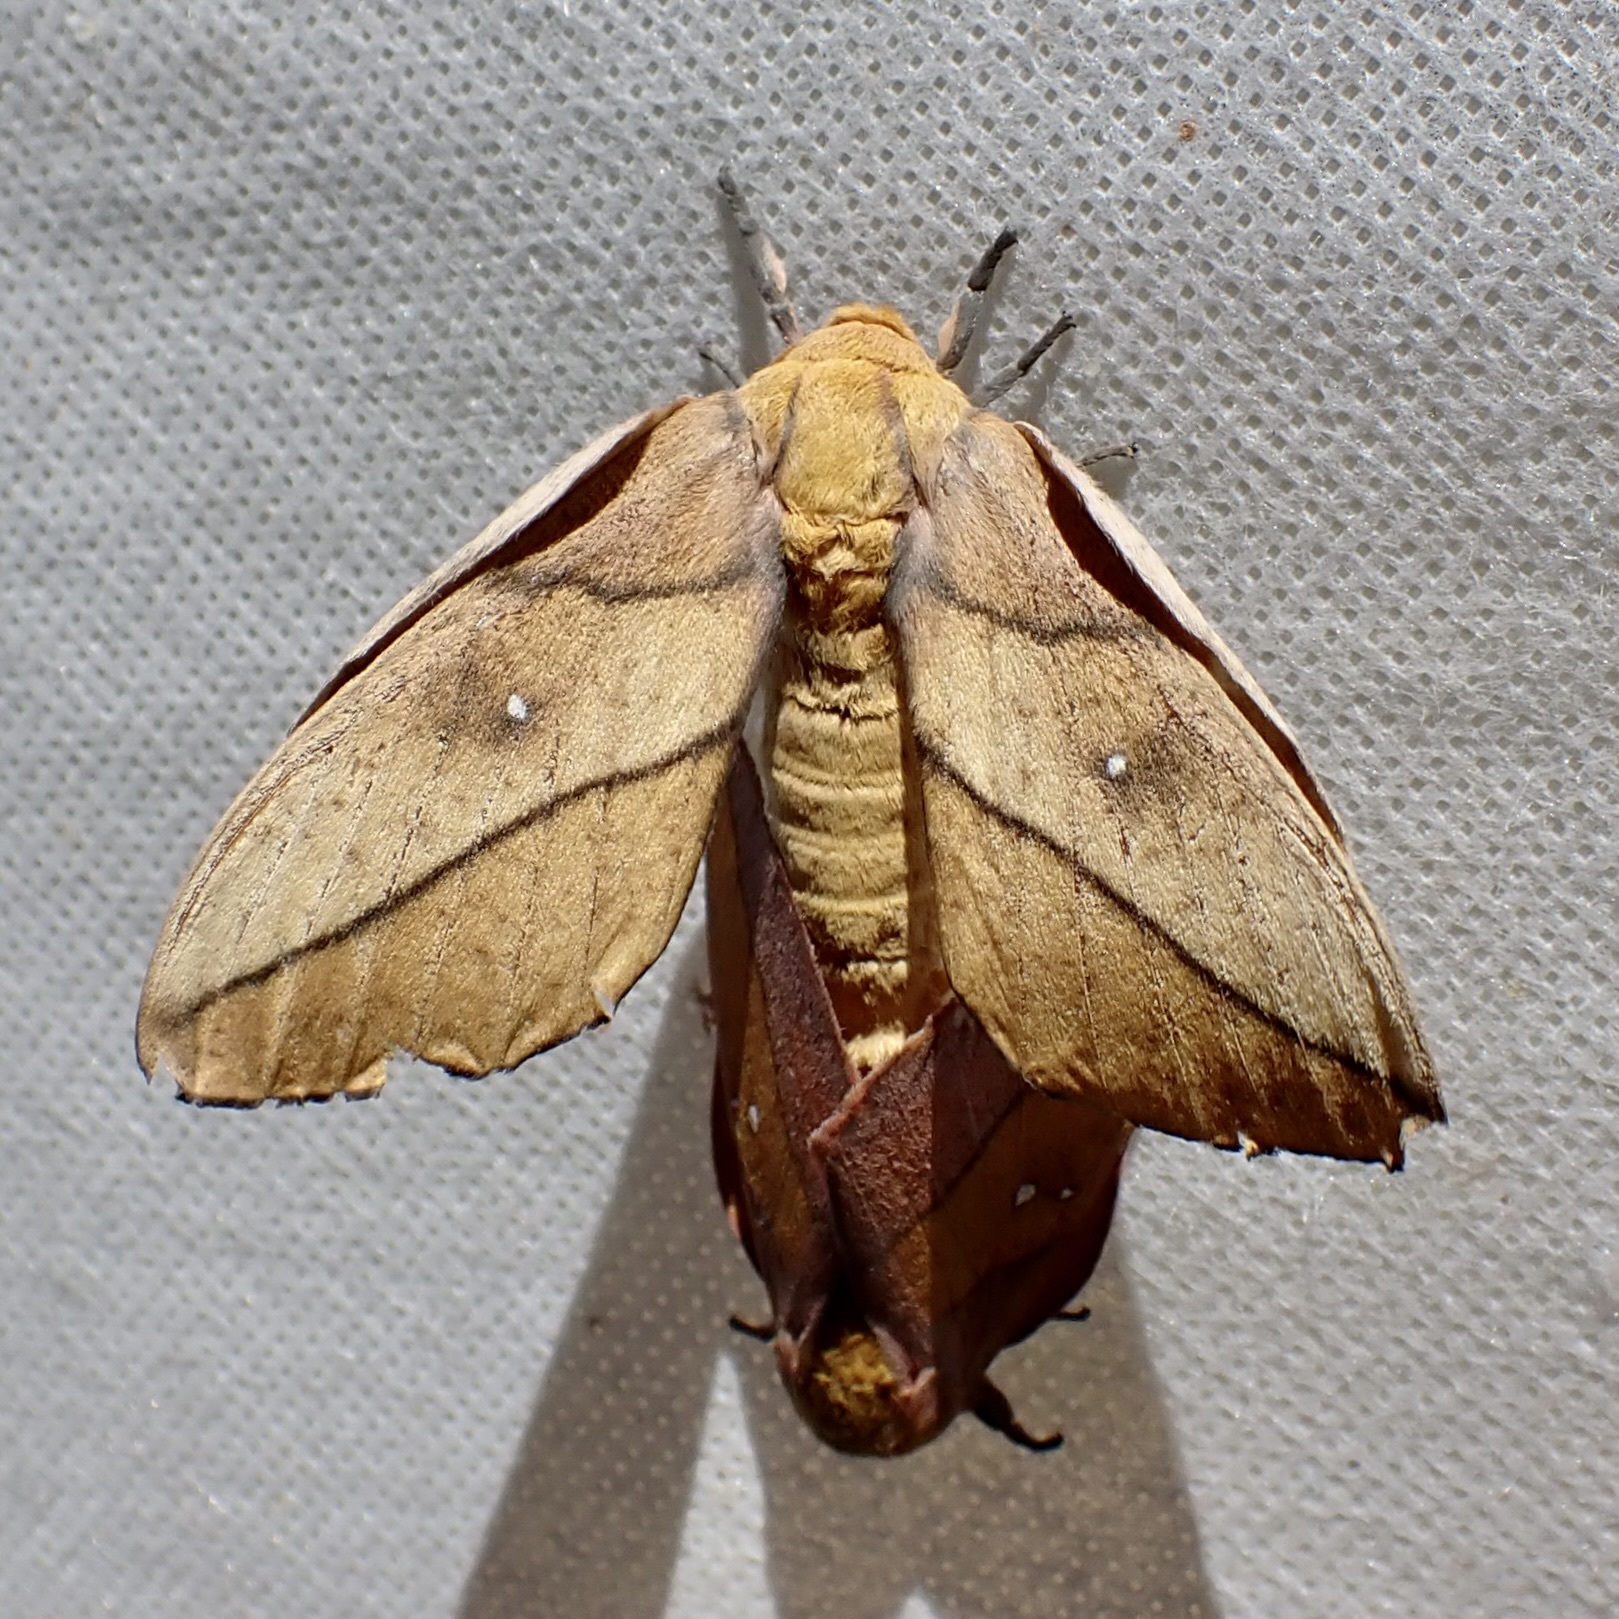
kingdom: Animalia
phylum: Arthropoda
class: Insecta
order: Lepidoptera
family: Saturniidae
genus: Syssphinx
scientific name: Syssphinx montana
